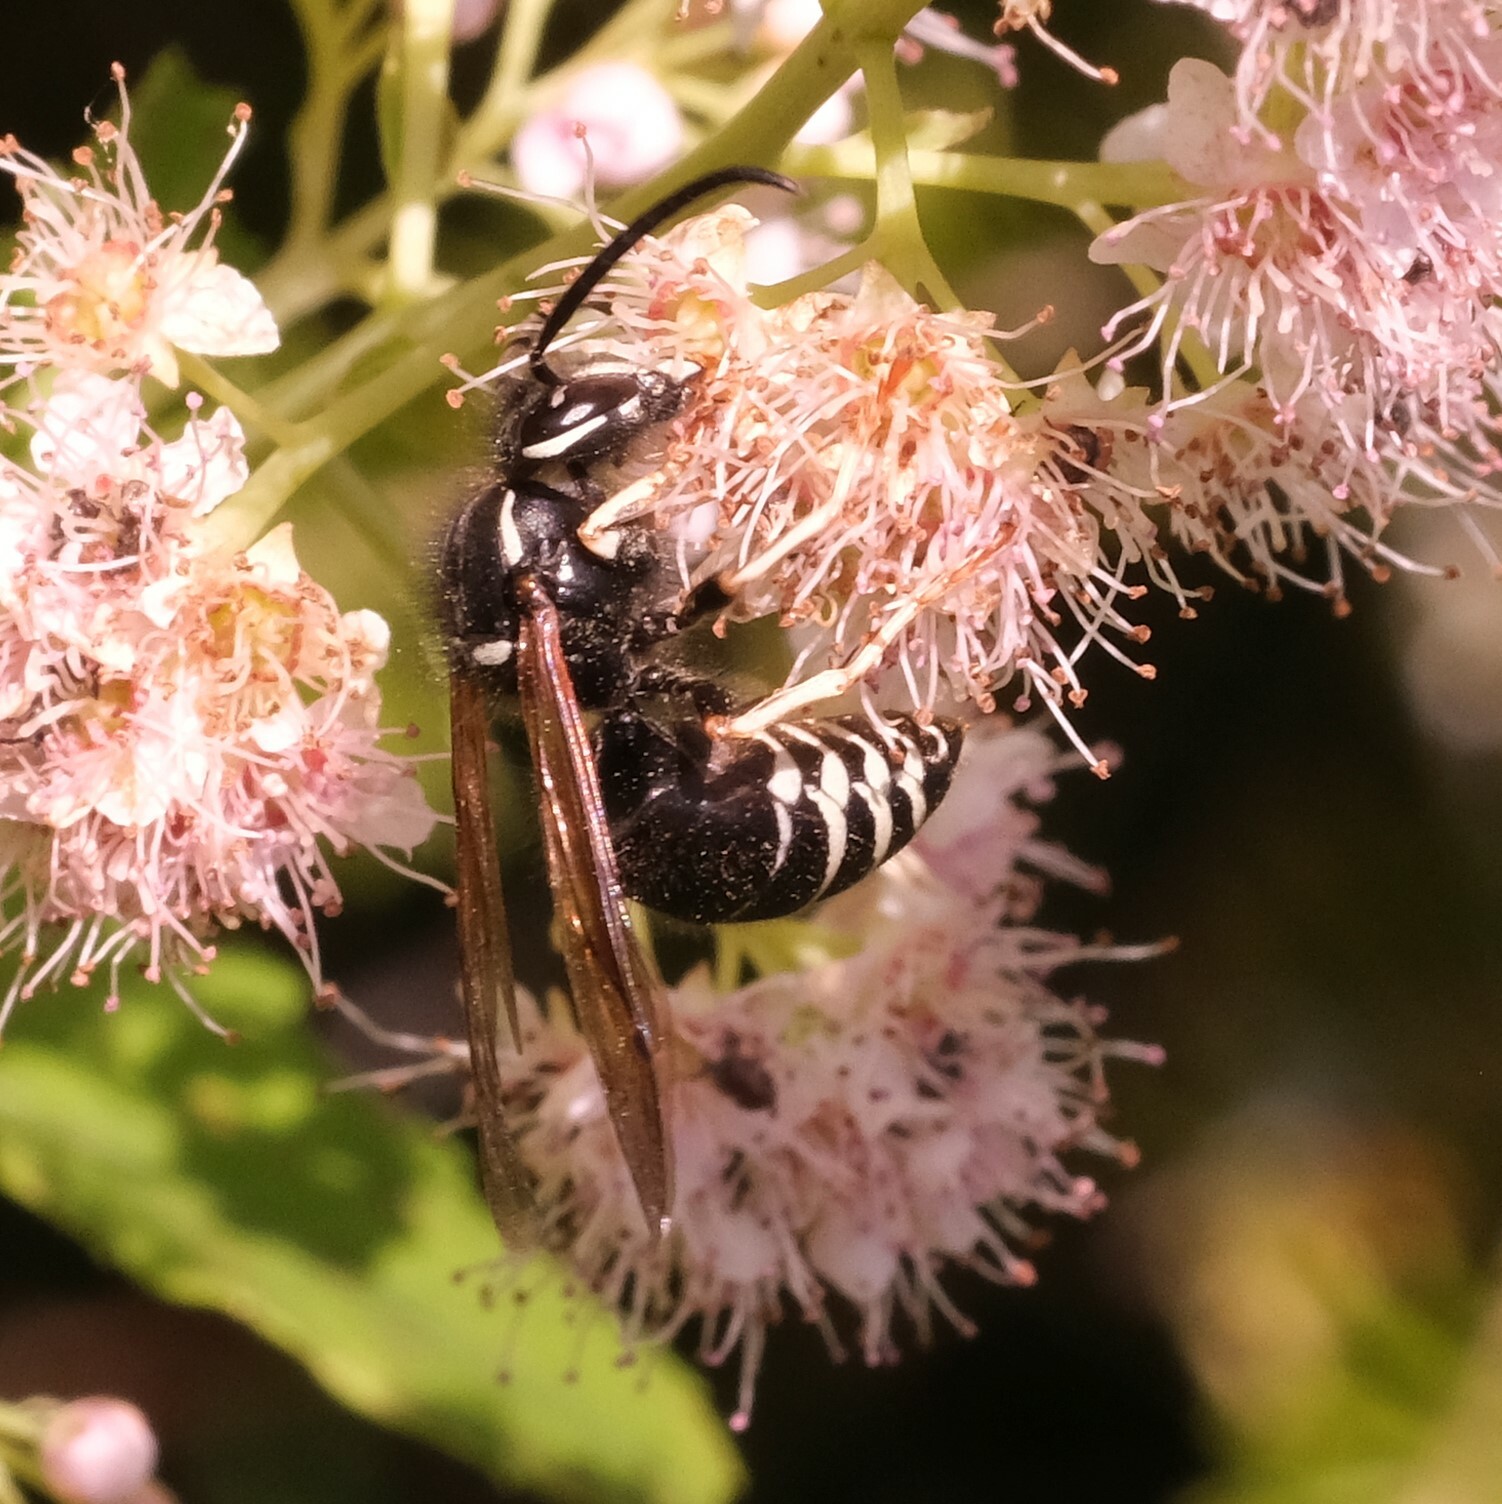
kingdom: Animalia
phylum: Arthropoda
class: Insecta
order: Hymenoptera
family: Vespidae
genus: Vespula
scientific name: Vespula consobrina
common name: Blackjacket
